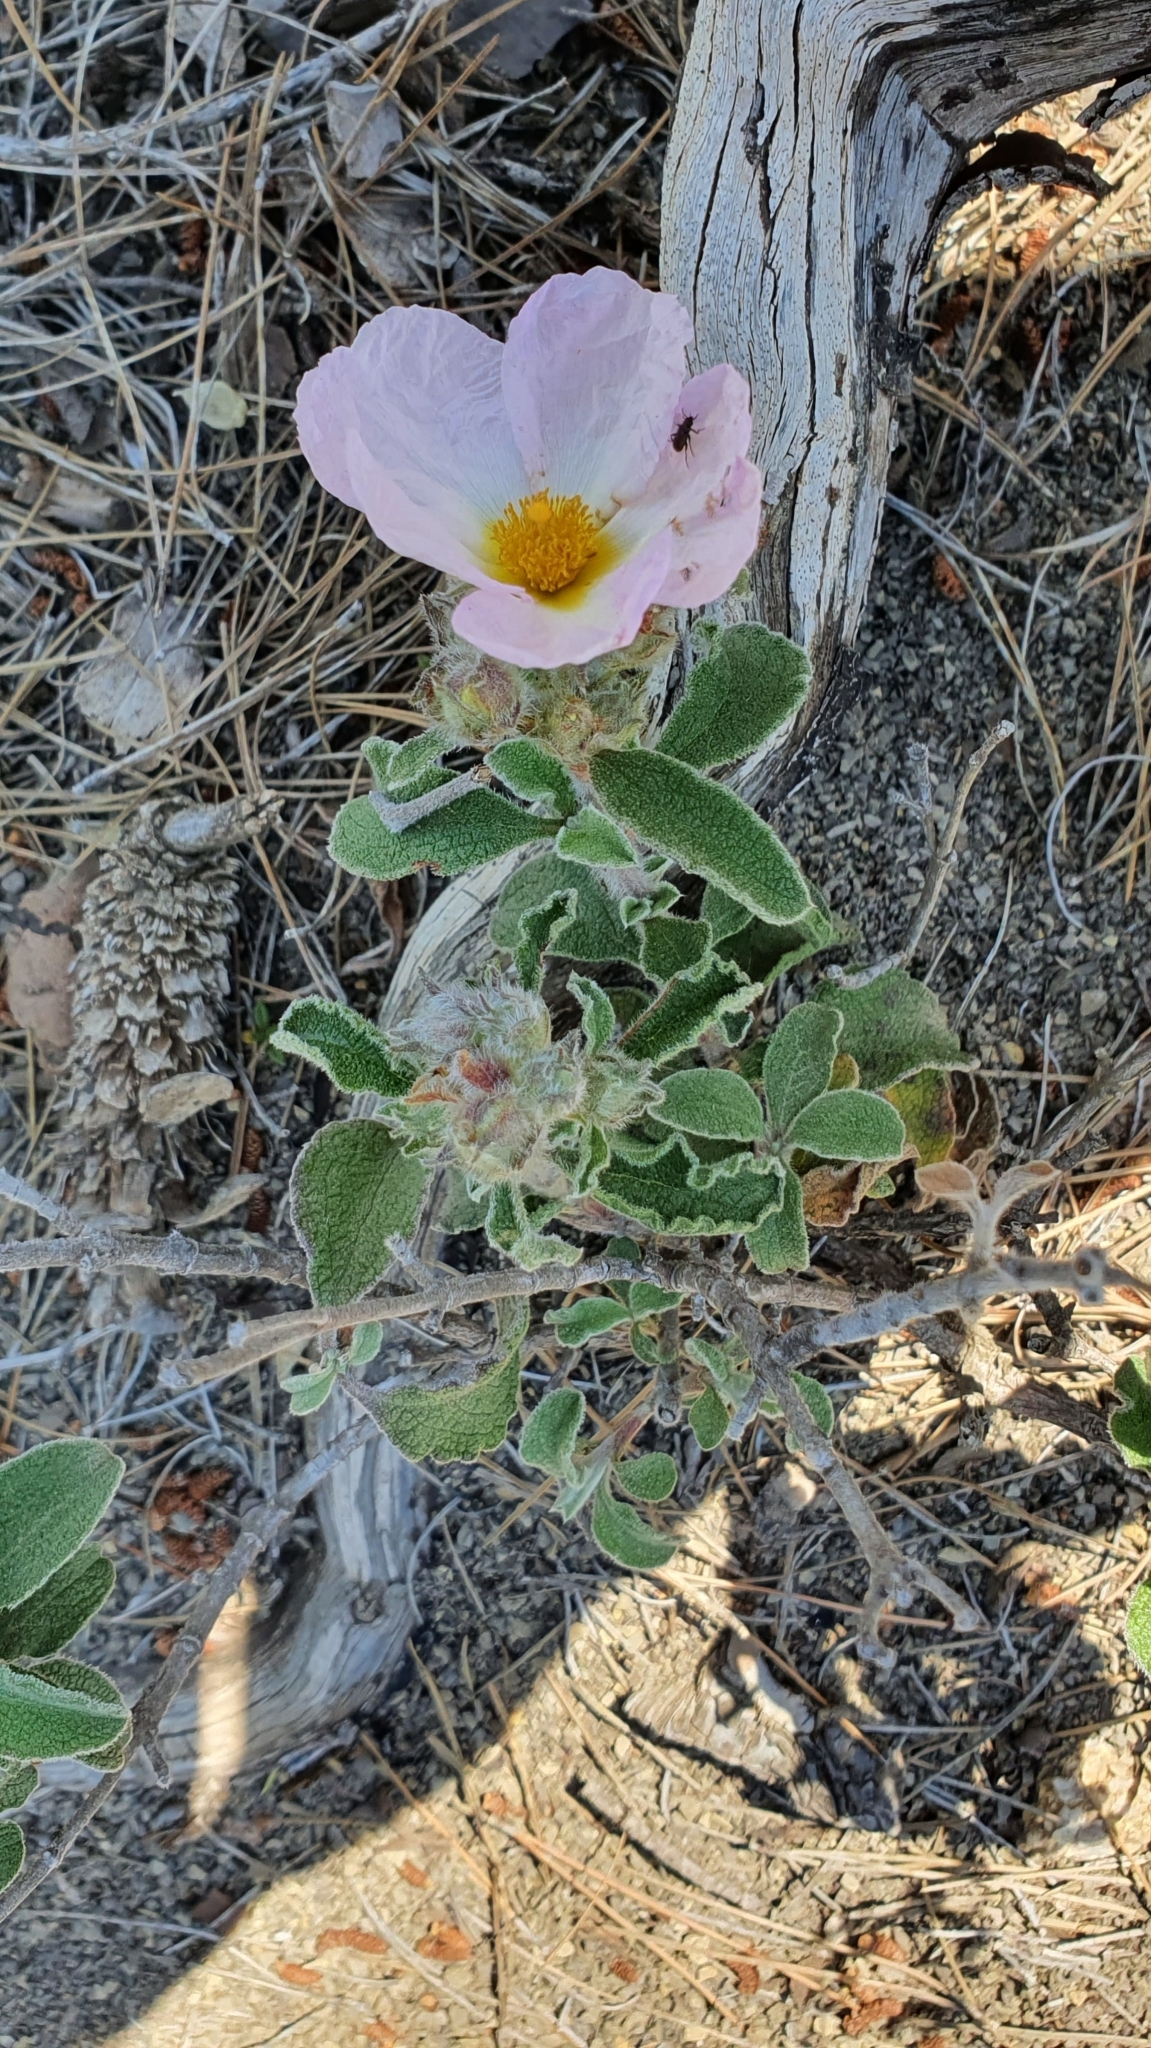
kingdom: Plantae
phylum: Tracheophyta
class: Magnoliopsida
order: Malvales
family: Cistaceae
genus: Cistus
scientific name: Cistus creticus
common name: Cretan rockrose
